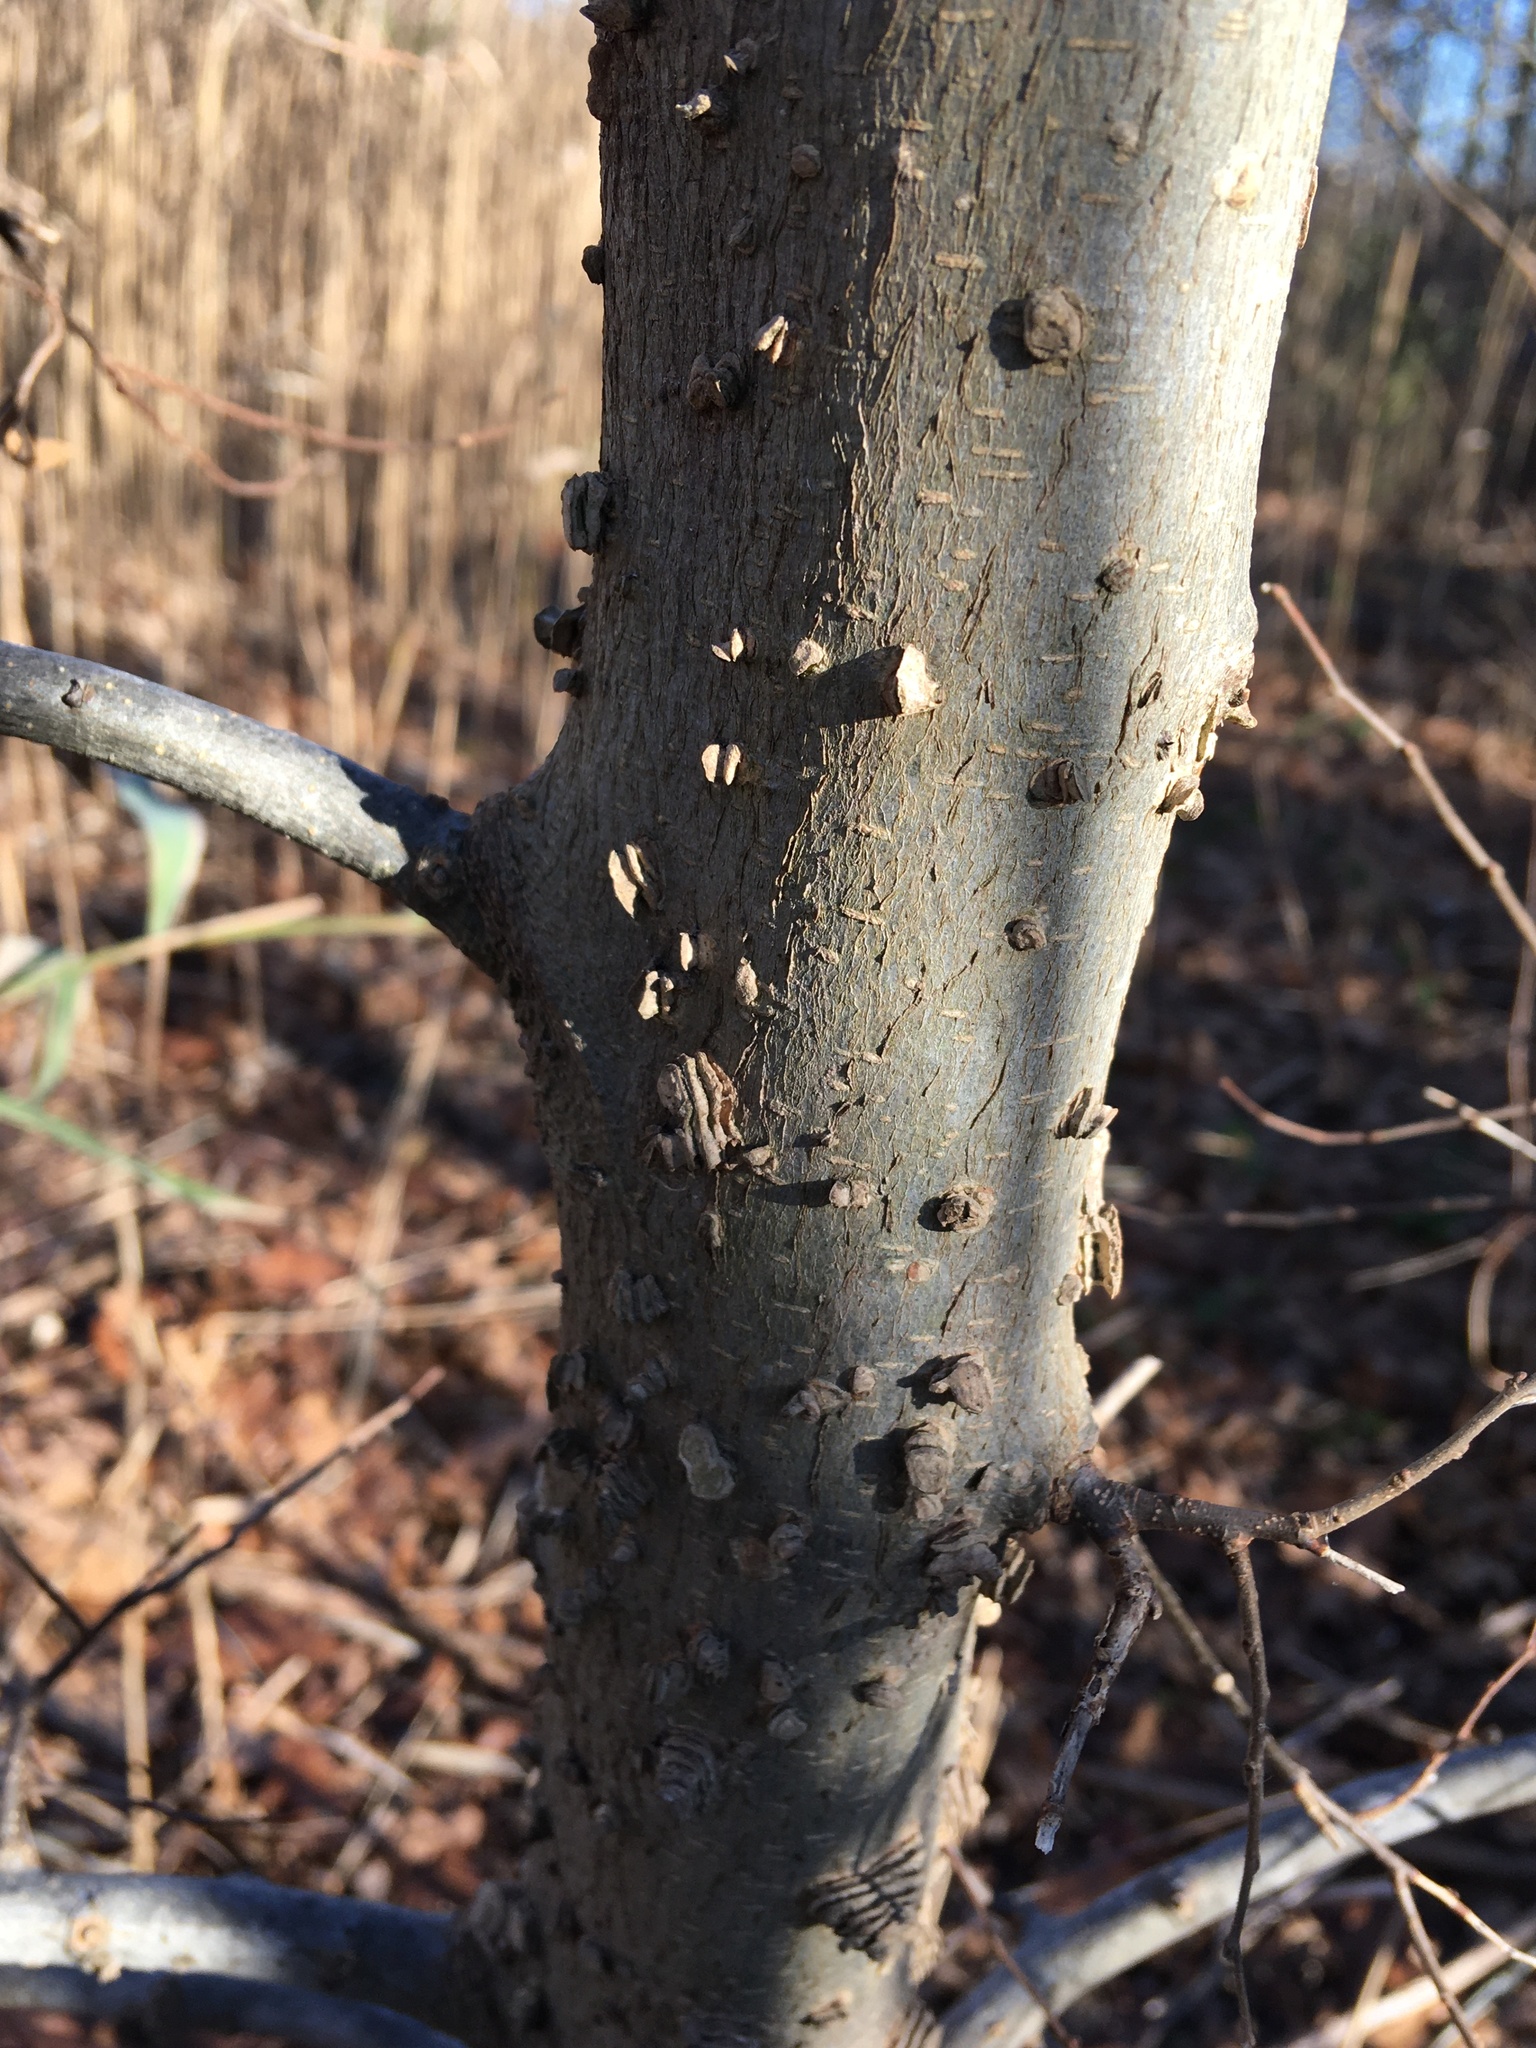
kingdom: Plantae
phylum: Tracheophyta
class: Magnoliopsida
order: Rosales
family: Cannabaceae
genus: Celtis
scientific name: Celtis occidentalis
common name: Common hackberry
